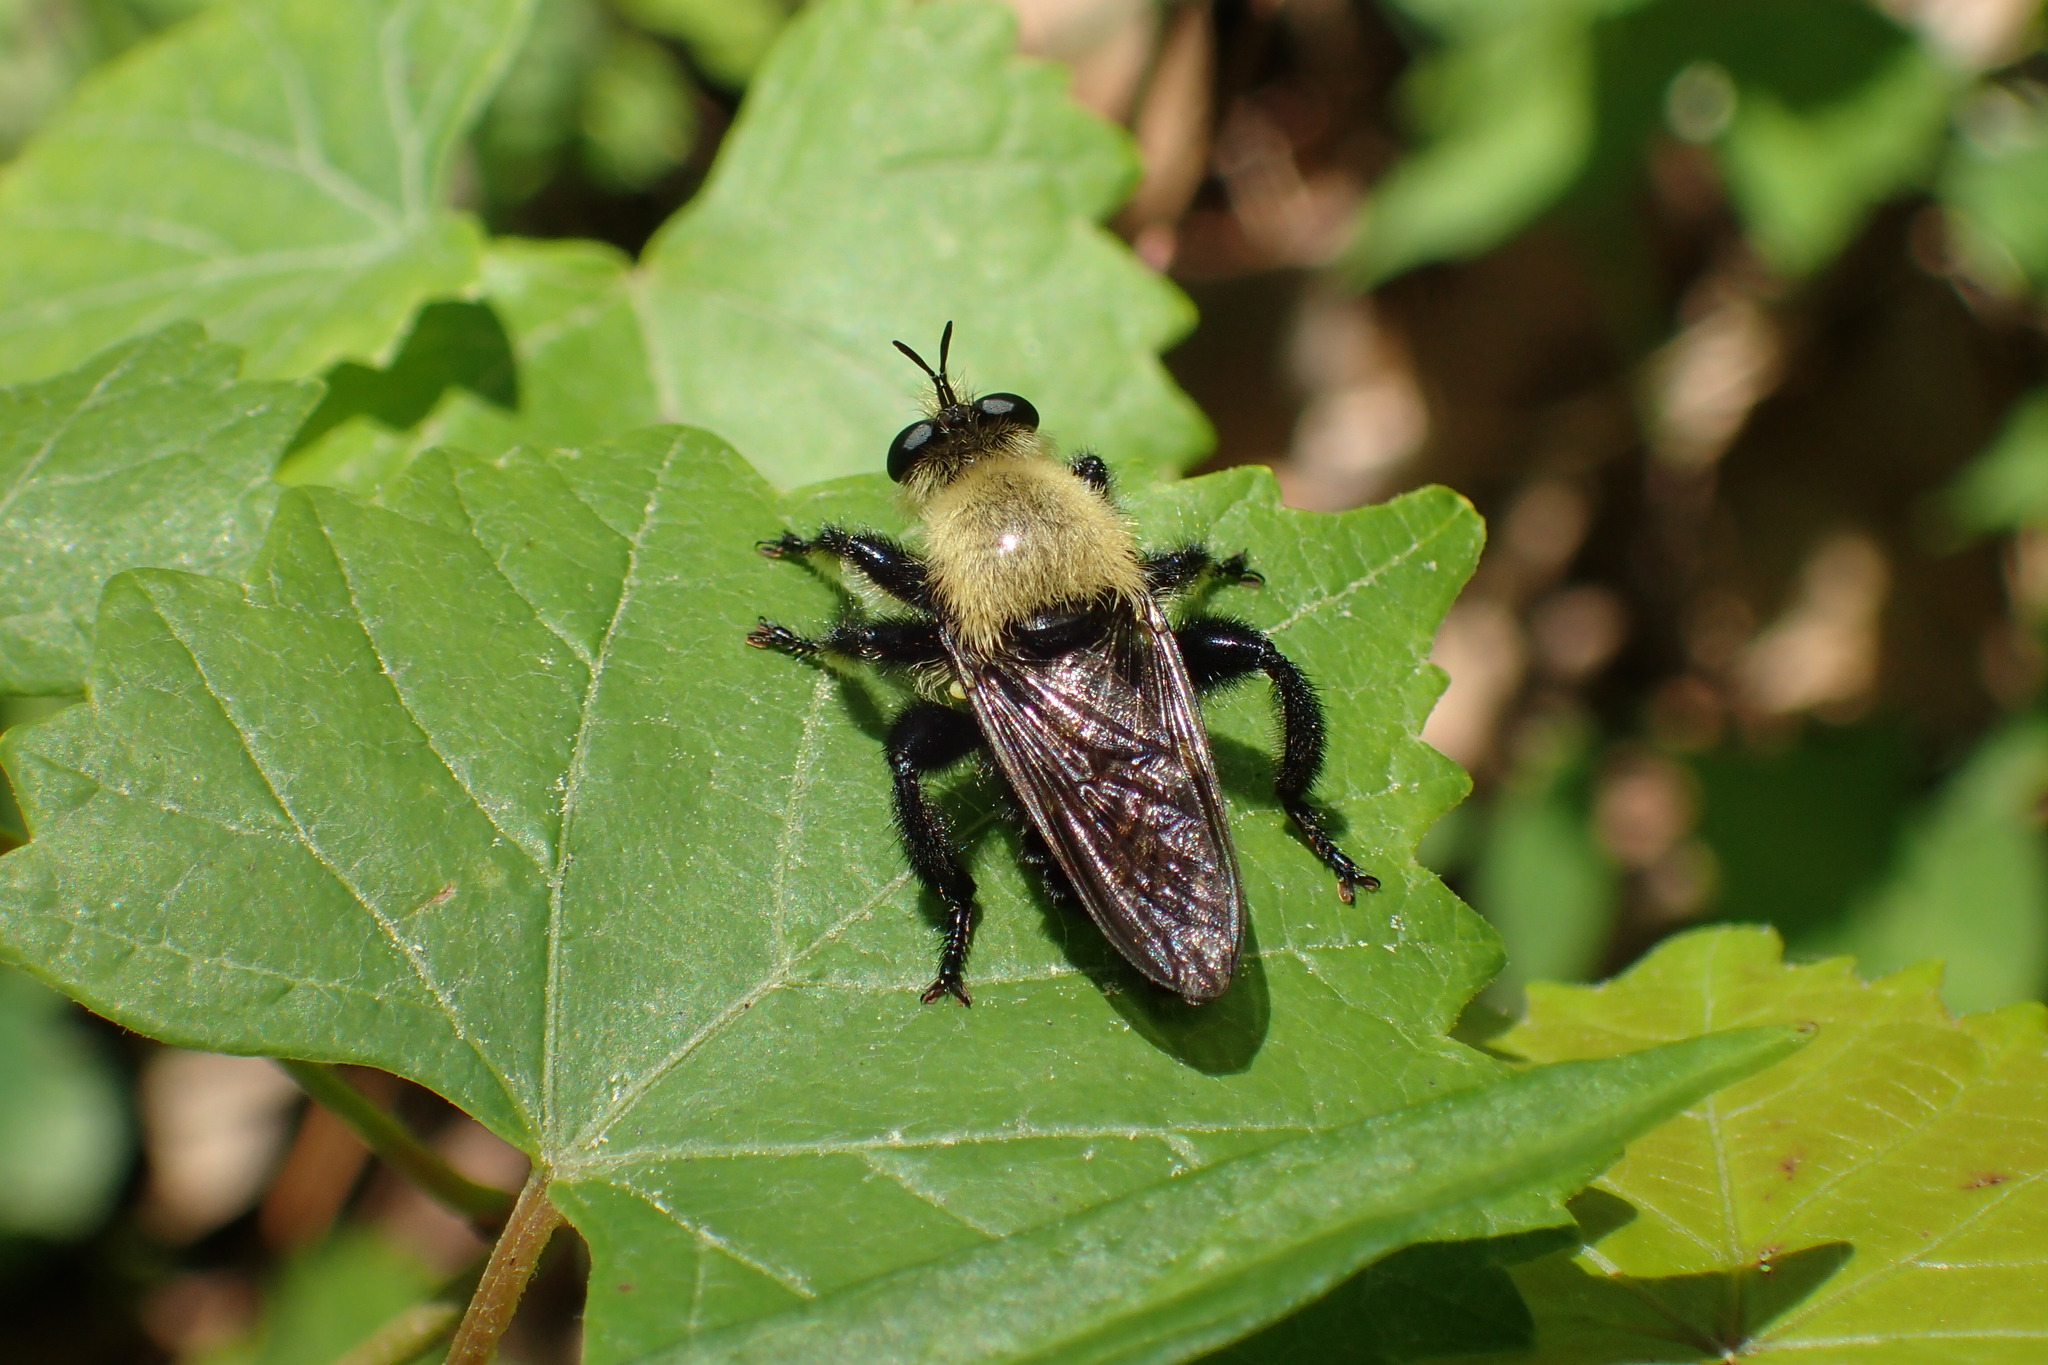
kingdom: Animalia
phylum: Arthropoda
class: Insecta
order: Diptera
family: Asilidae
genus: Laphria
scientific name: Laphria virginica
